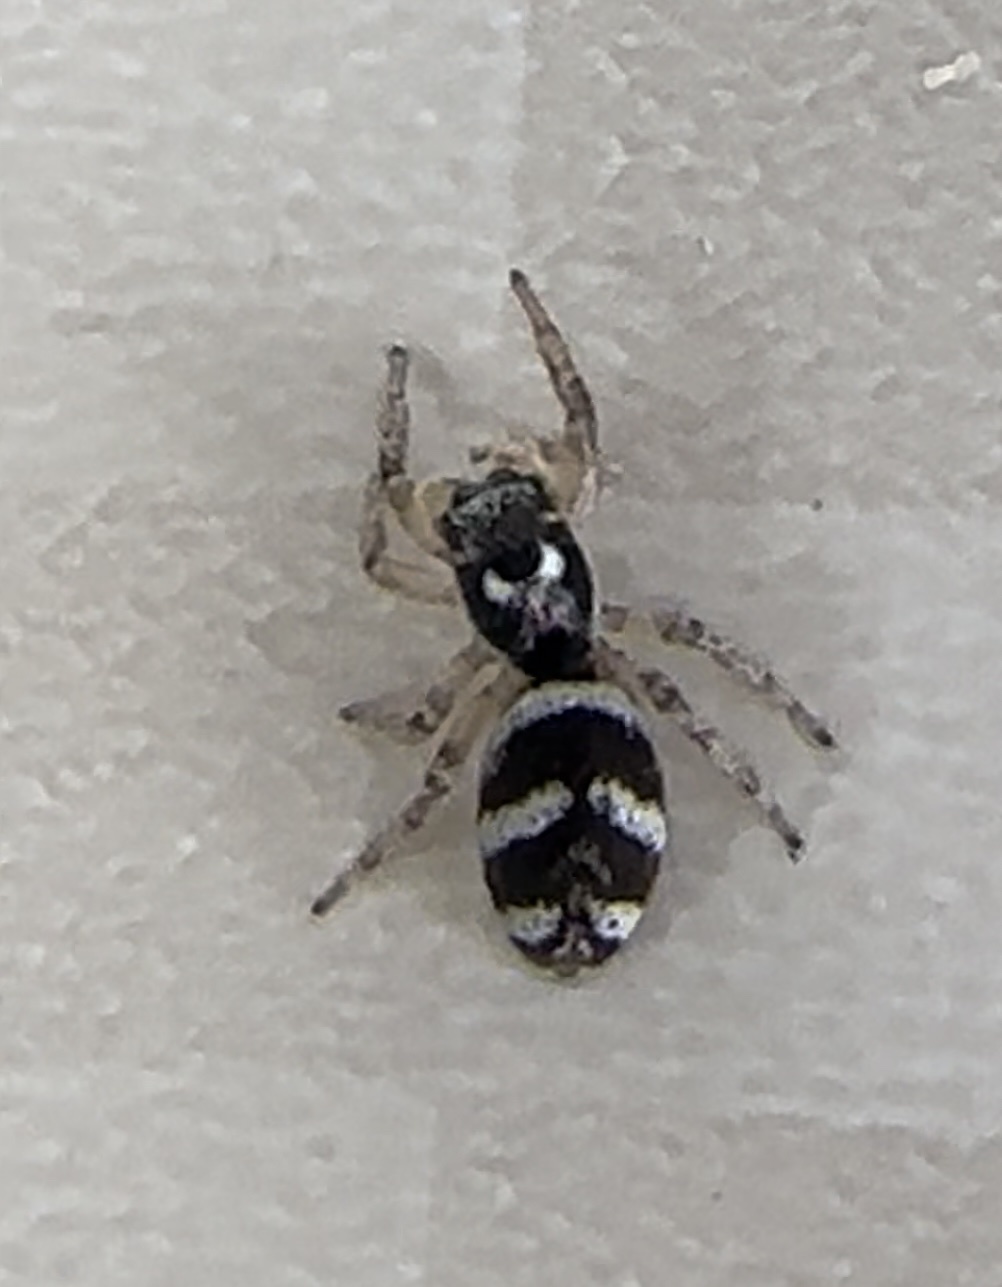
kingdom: Animalia
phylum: Arthropoda
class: Arachnida
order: Araneae
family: Salticidae
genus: Salticus
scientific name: Salticus scenicus
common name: Zebra jumper
